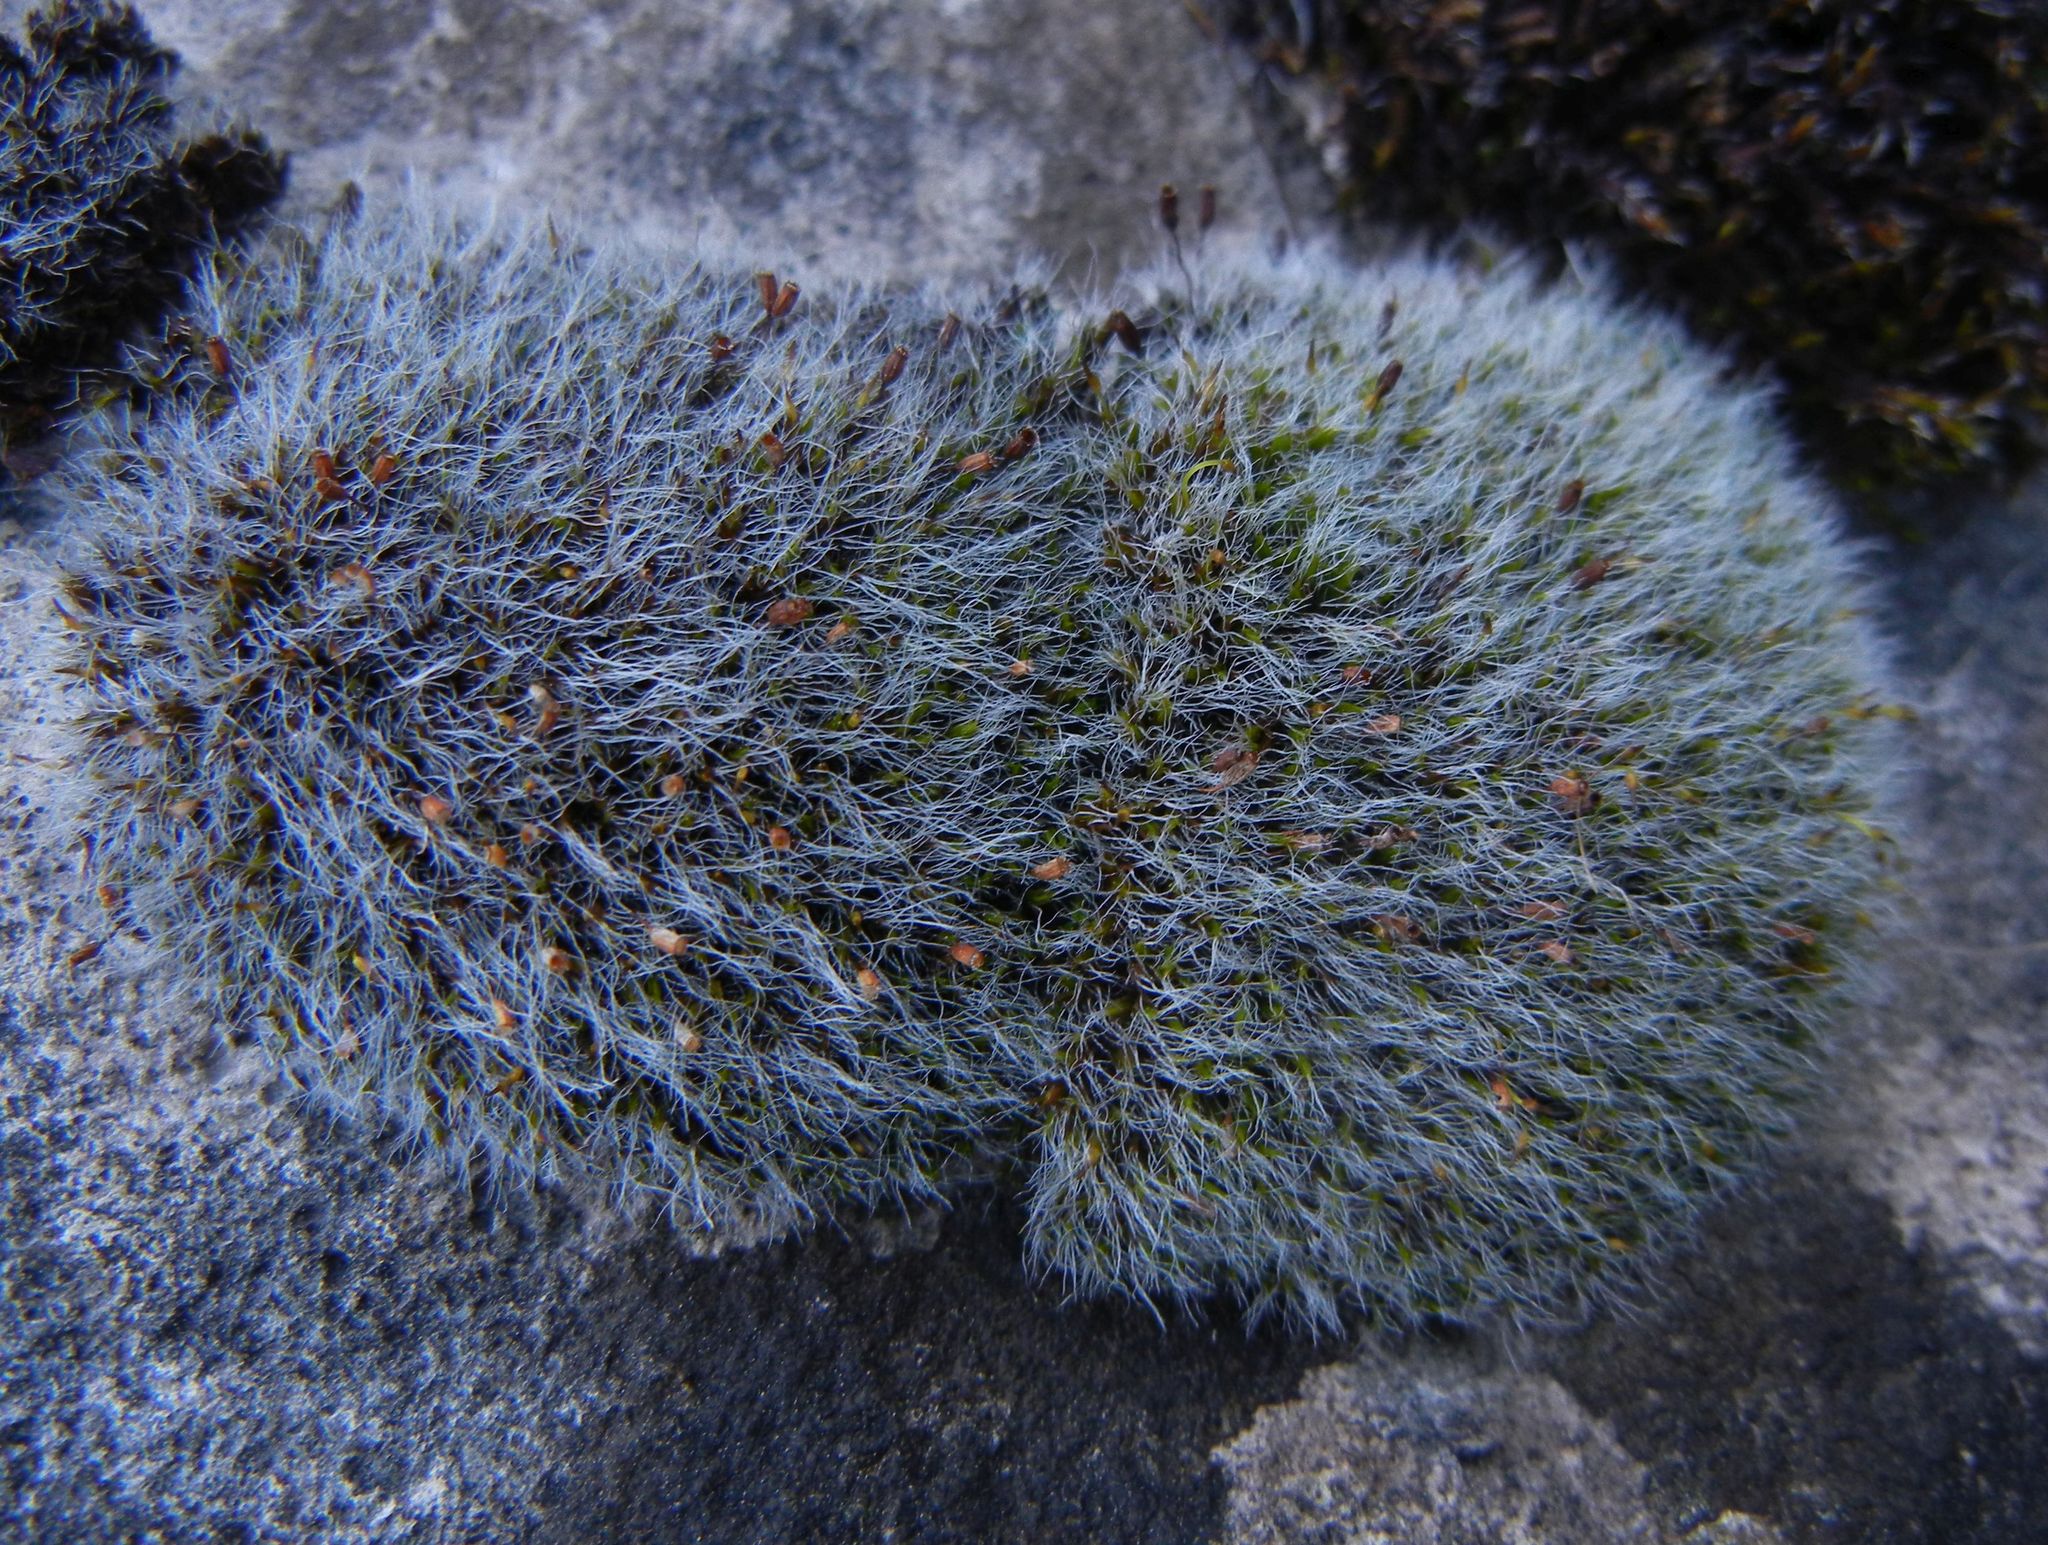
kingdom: Plantae
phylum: Bryophyta
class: Bryopsida
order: Grimmiales
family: Grimmiaceae
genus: Grimmia
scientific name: Grimmia pulvinata
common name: Grey-cushioned grimmia
